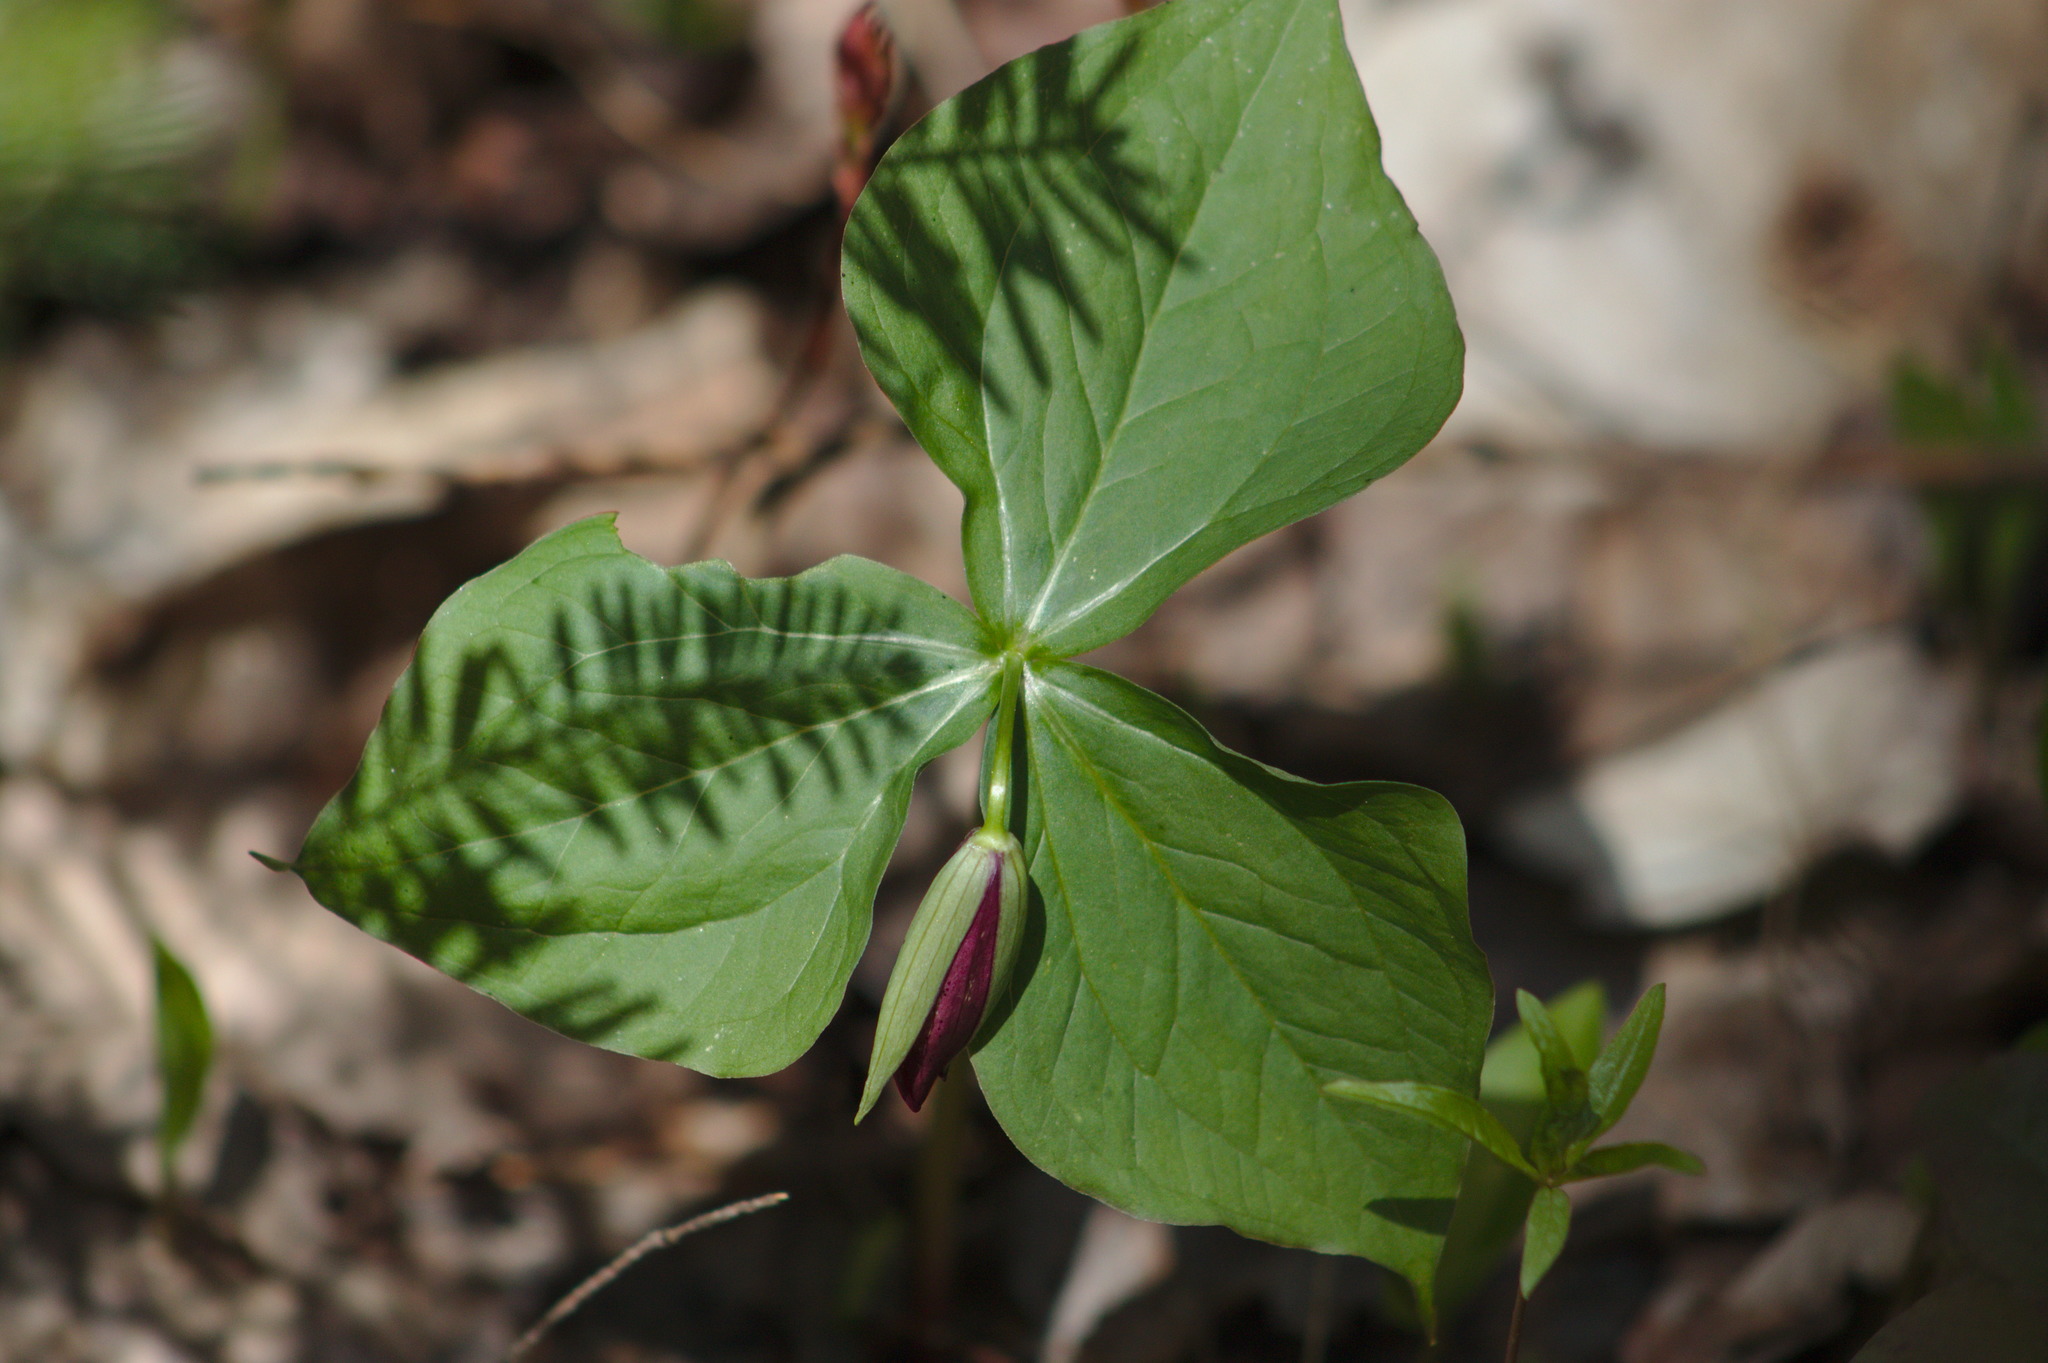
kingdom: Plantae
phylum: Tracheophyta
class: Liliopsida
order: Liliales
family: Melanthiaceae
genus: Trillium
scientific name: Trillium erectum
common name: Purple trillium
